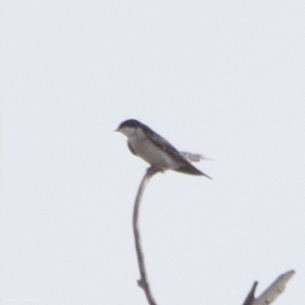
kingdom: Animalia
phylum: Chordata
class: Aves
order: Passeriformes
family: Hirundinidae
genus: Tachycineta
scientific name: Tachycineta bicolor
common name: Tree swallow
